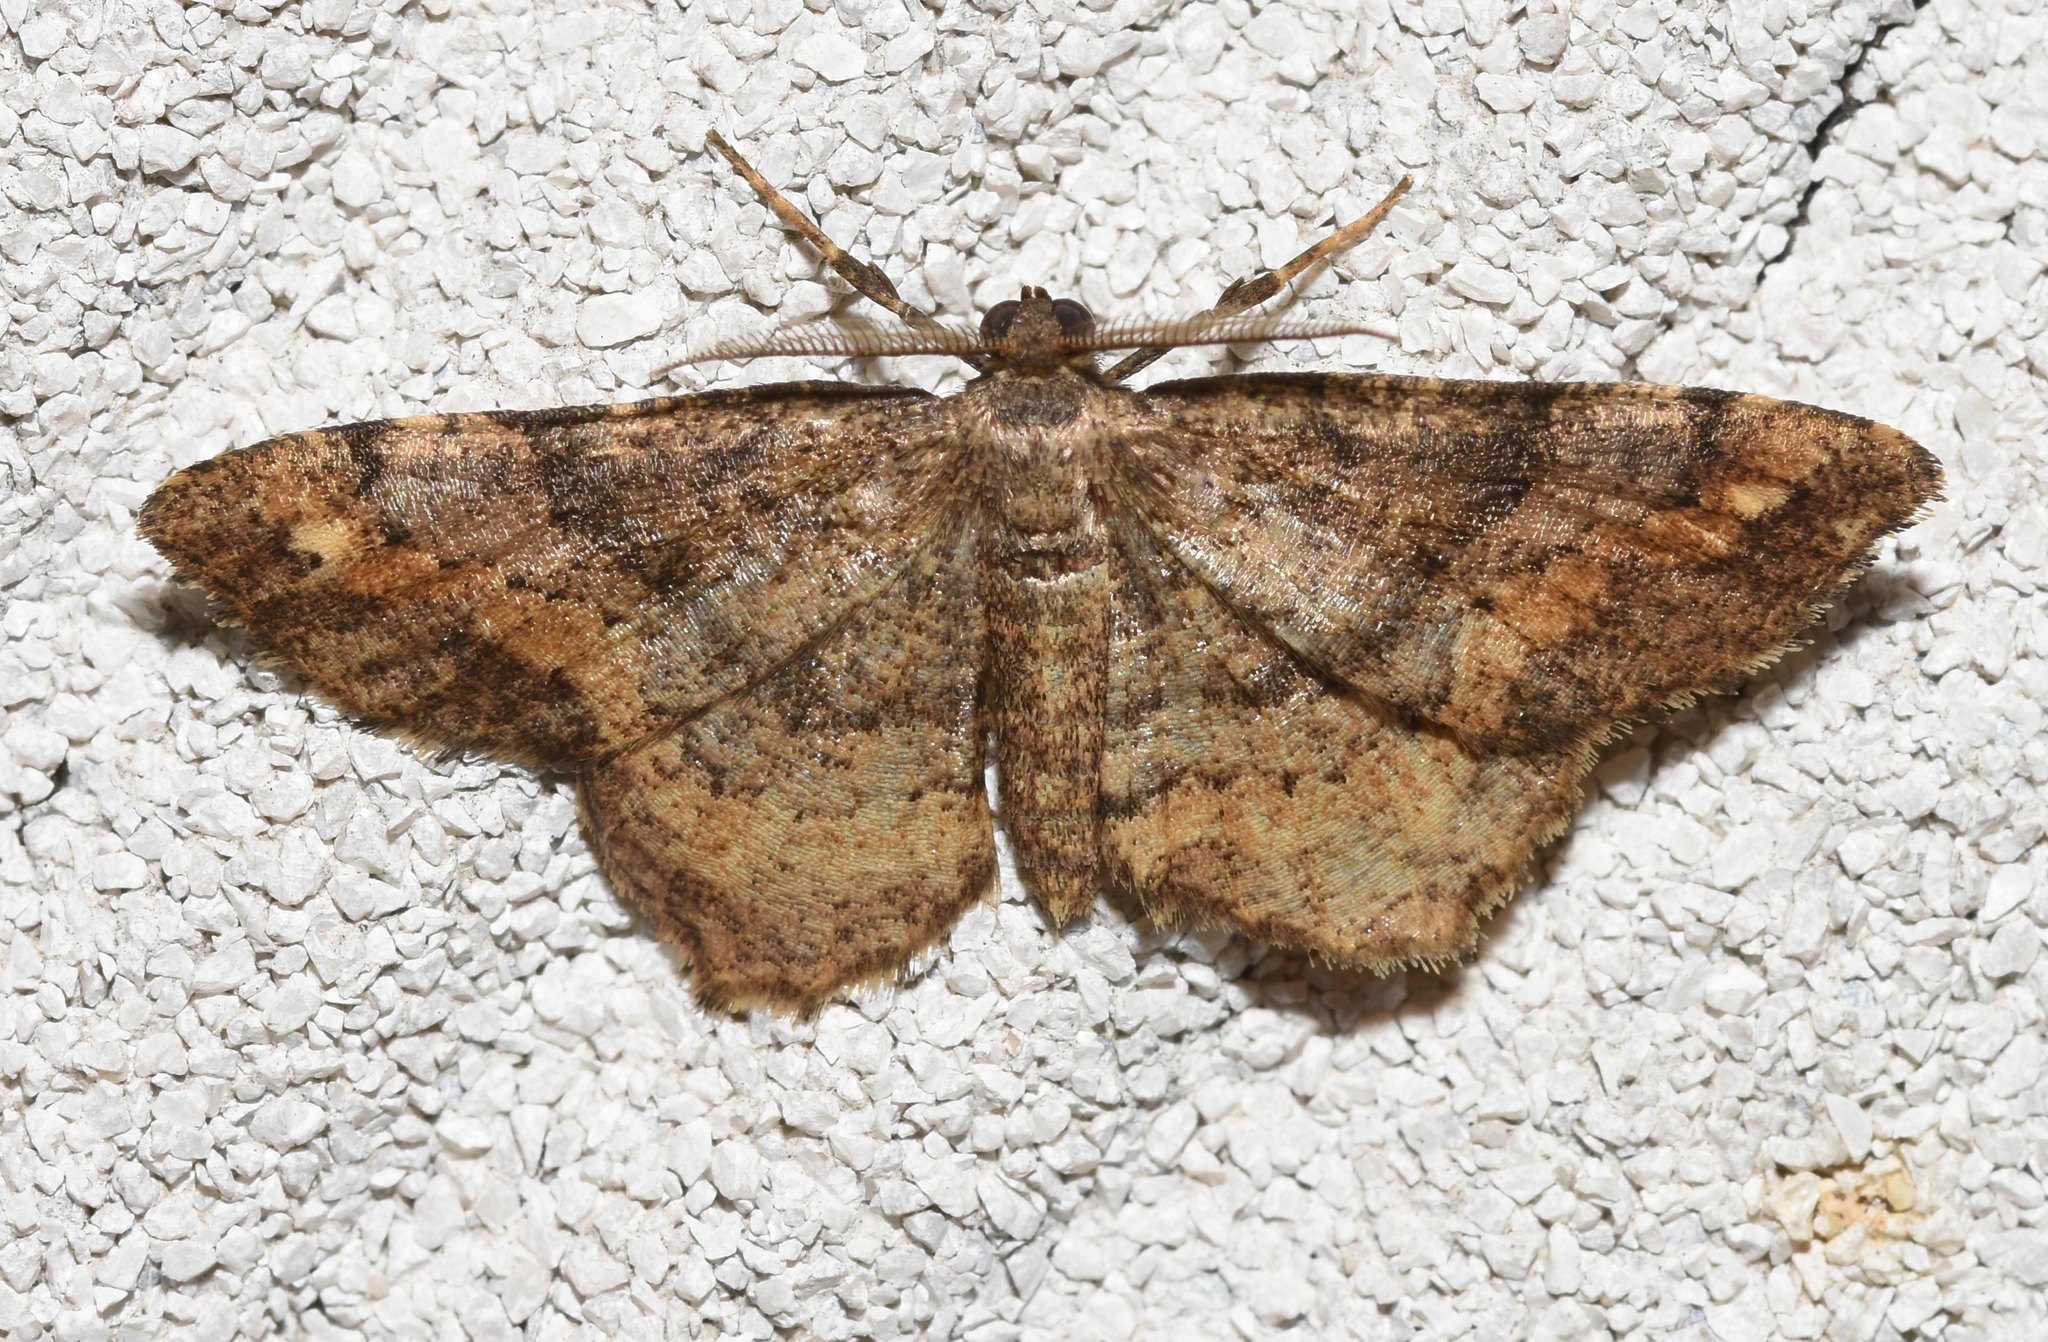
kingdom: Animalia
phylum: Arthropoda
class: Insecta
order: Lepidoptera
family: Geometridae
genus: Hypagyrtis
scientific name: Hypagyrtis unipunctata
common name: One-spotted variant
